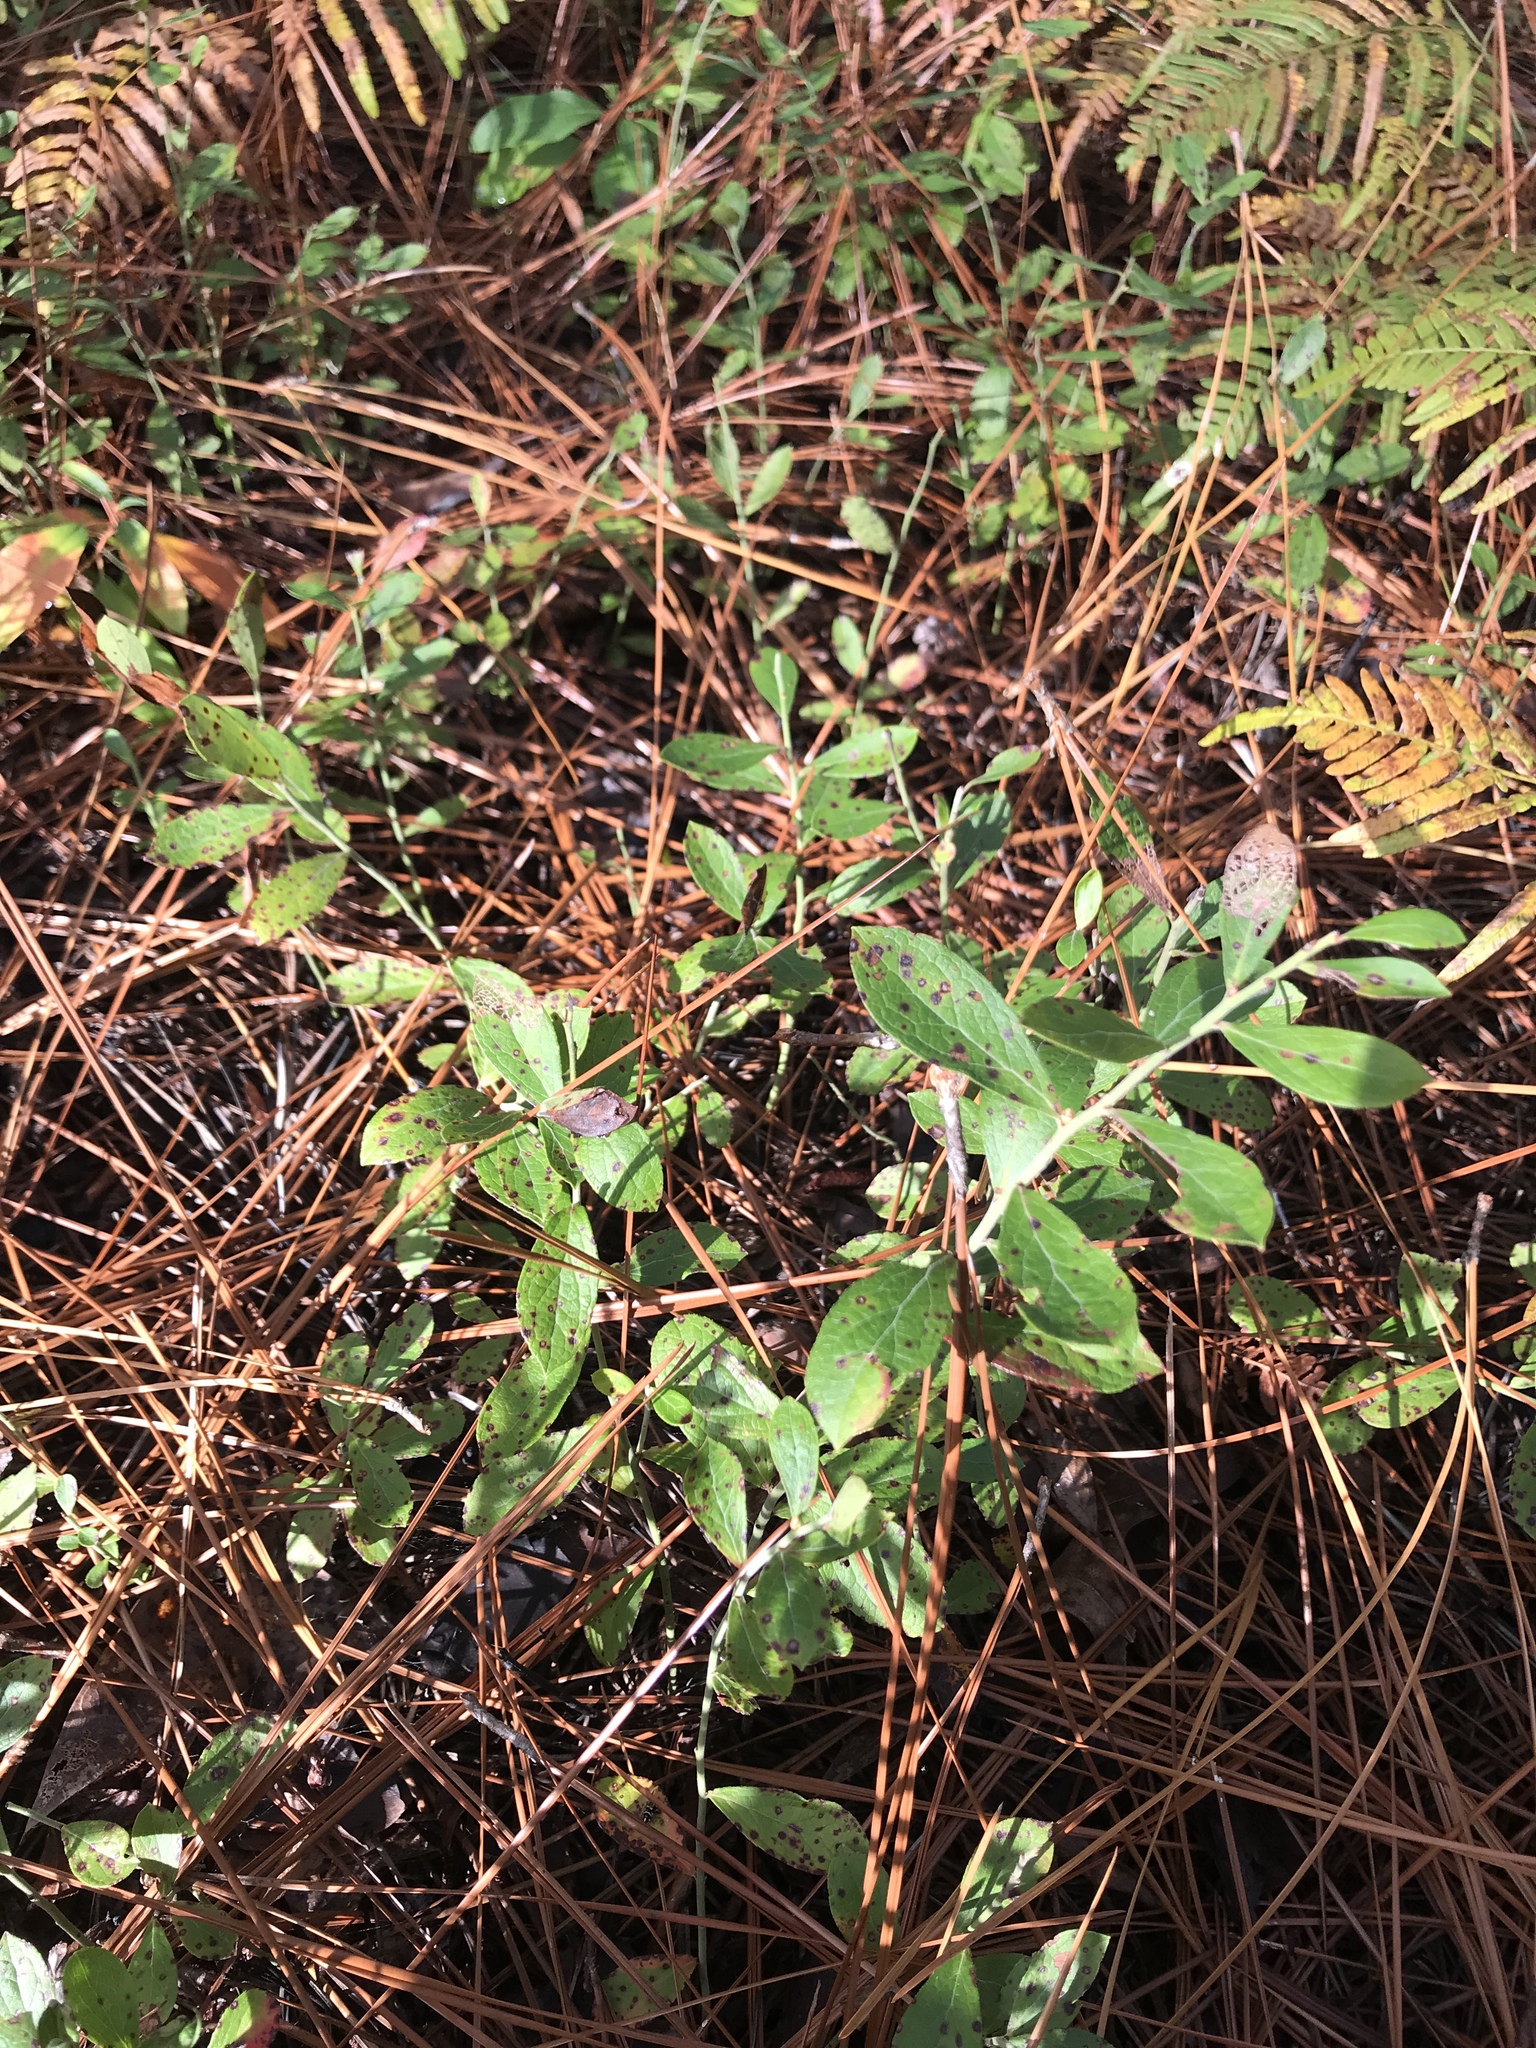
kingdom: Plantae
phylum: Tracheophyta
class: Magnoliopsida
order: Ericales
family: Ericaceae
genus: Vaccinium
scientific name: Vaccinium tenellum
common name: Southern blueberry
